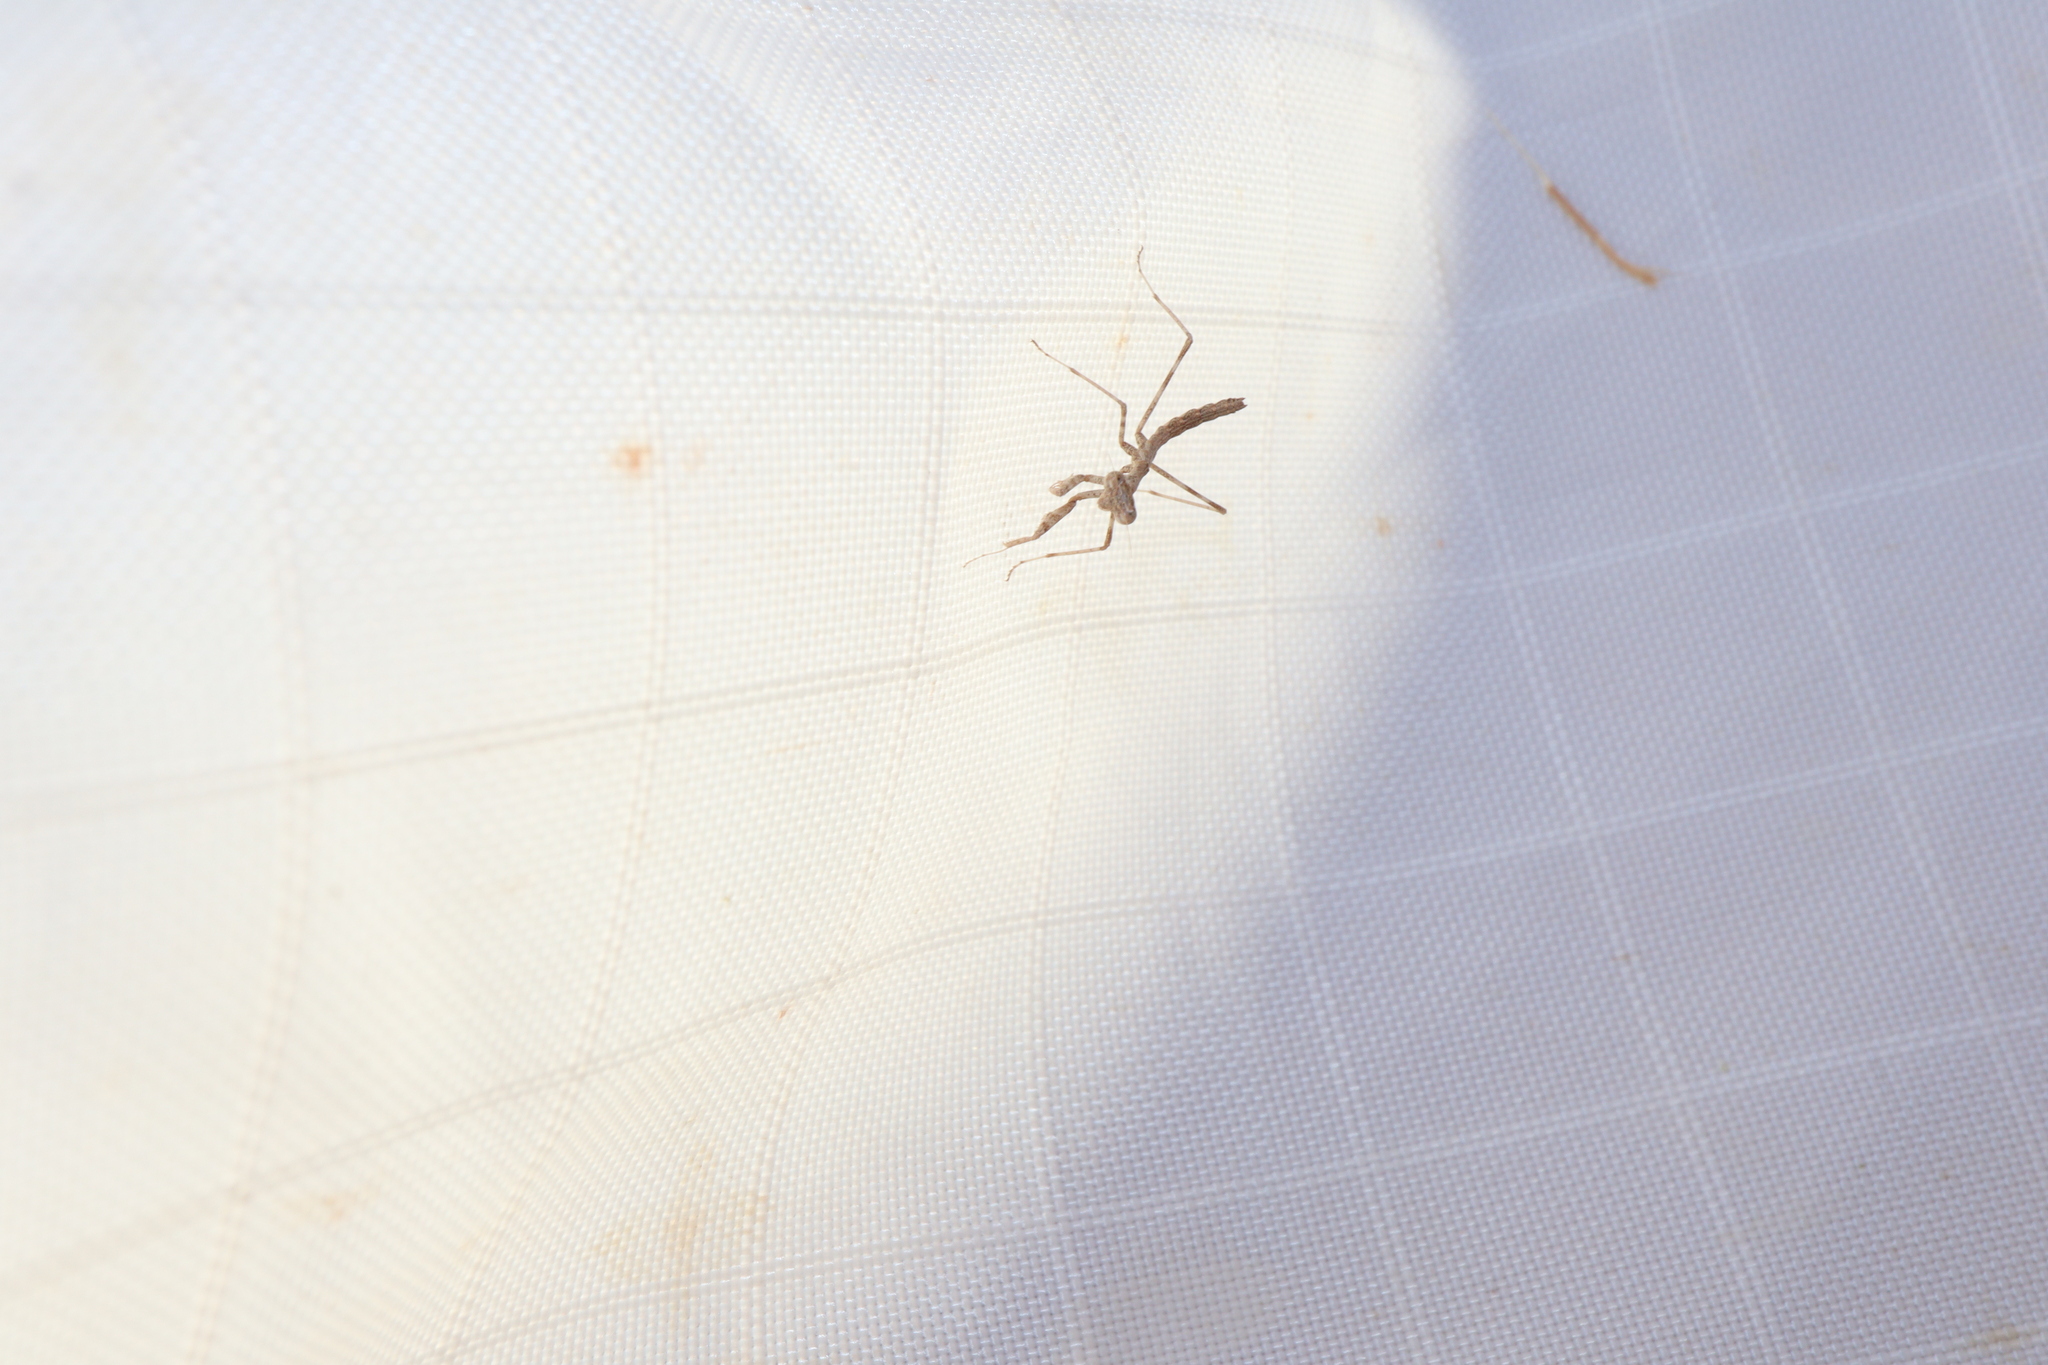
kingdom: Animalia
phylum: Arthropoda
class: Insecta
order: Mantodea
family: Mantidae
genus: Coenomantis
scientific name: Coenomantis kraussiana
